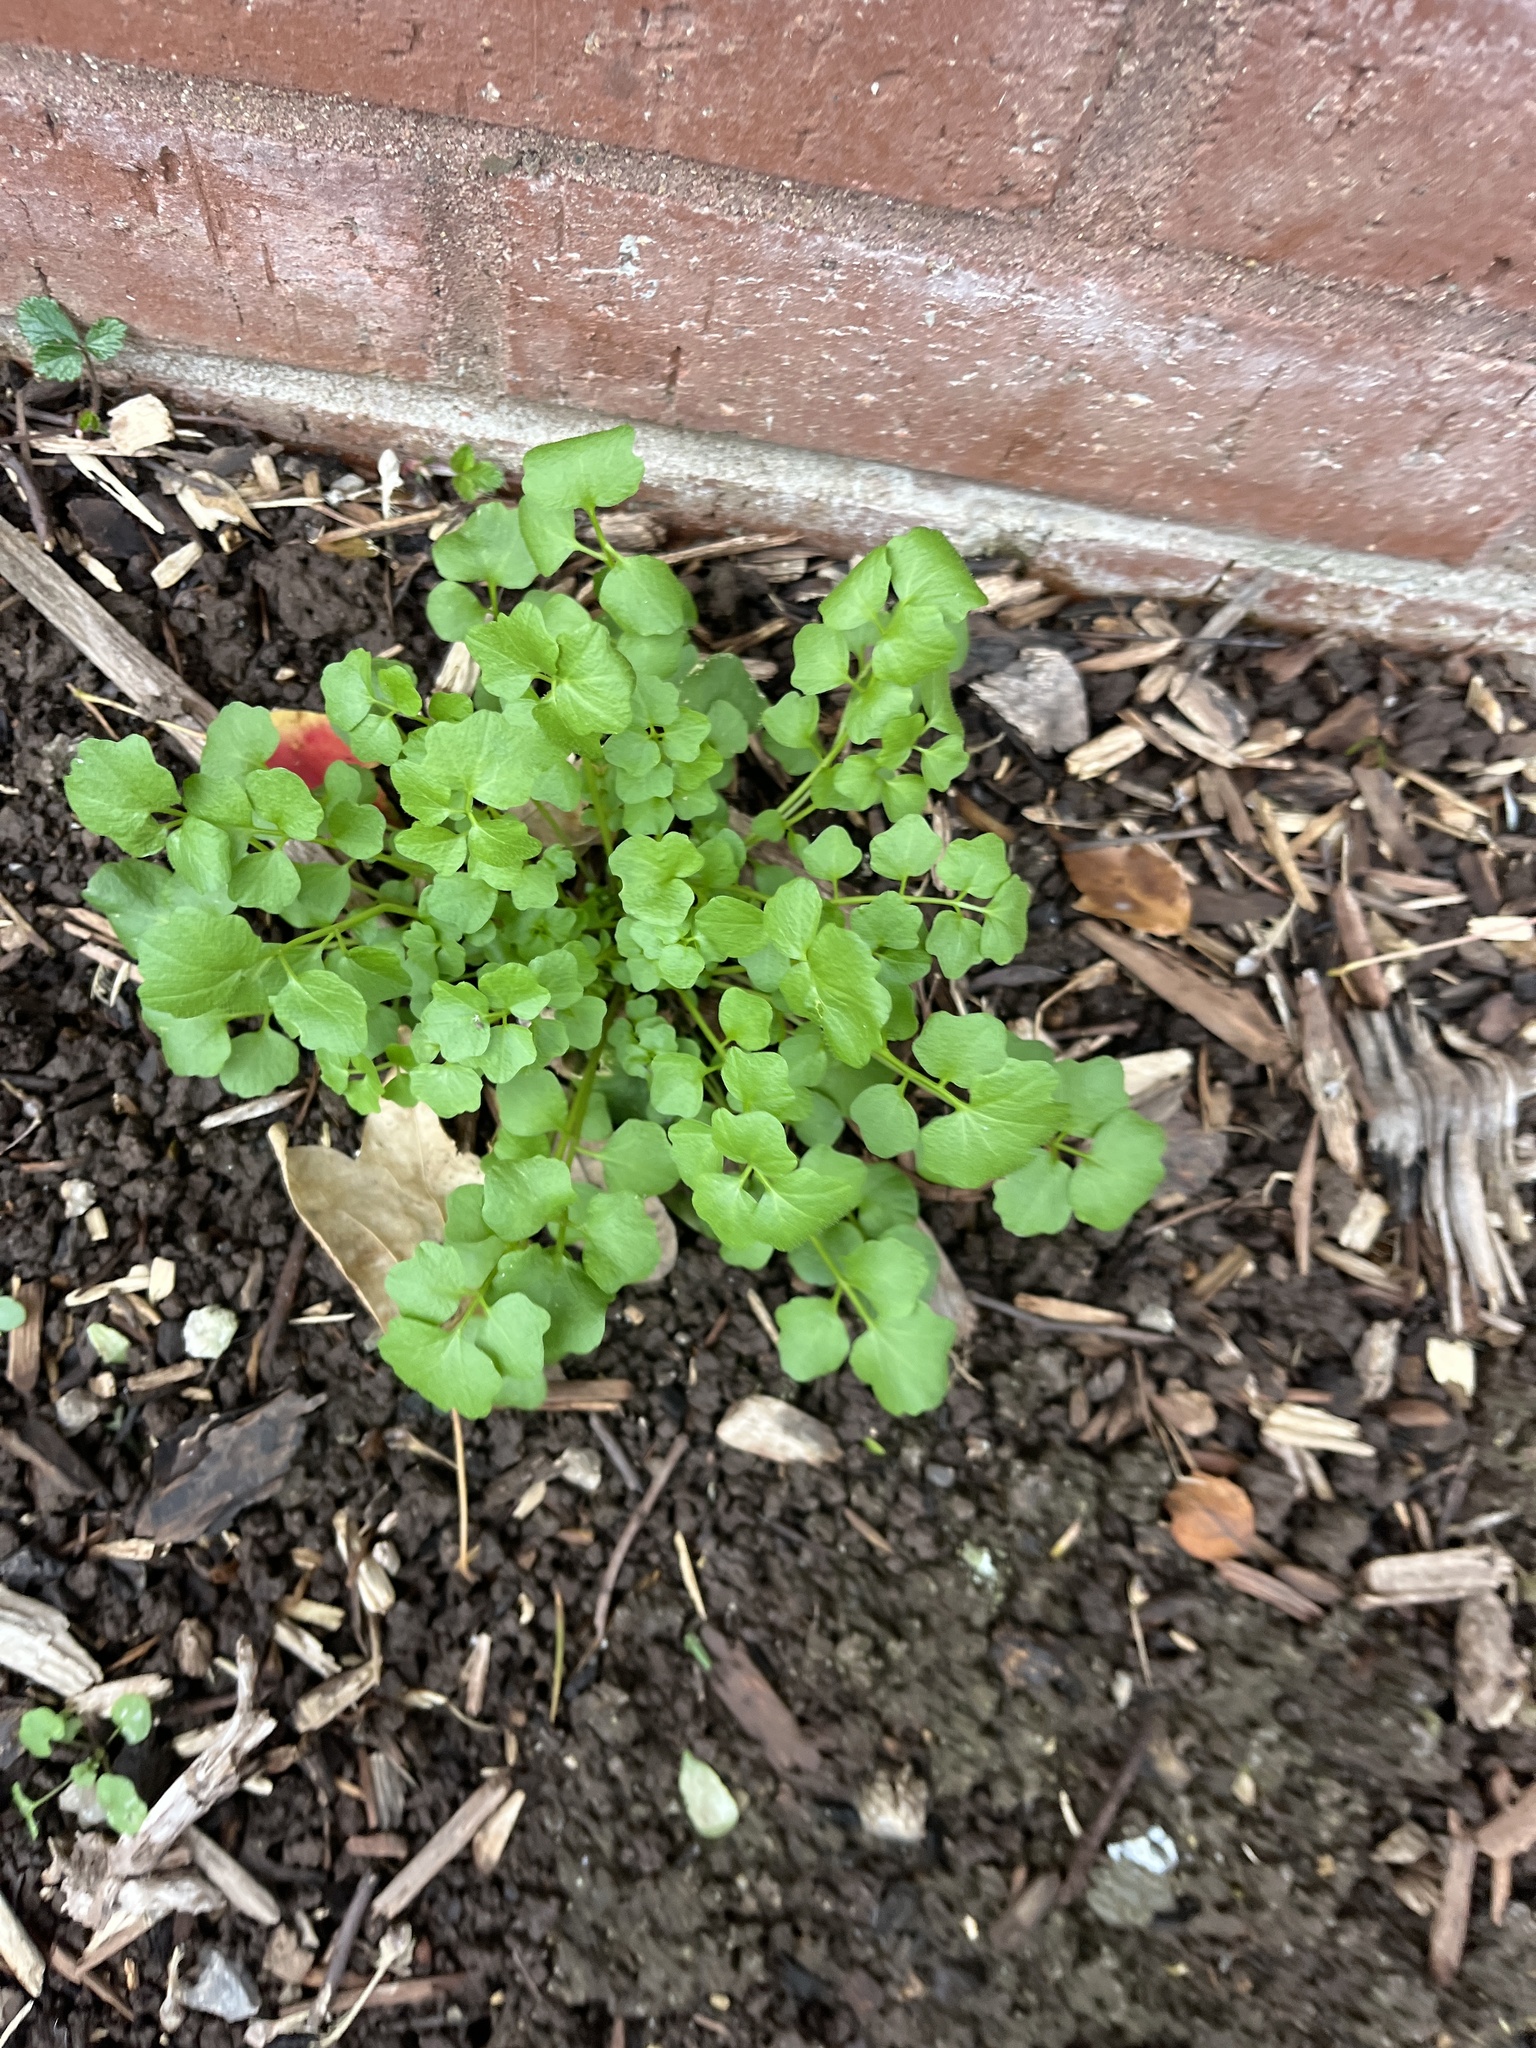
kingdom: Plantae
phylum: Tracheophyta
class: Magnoliopsida
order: Brassicales
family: Brassicaceae
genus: Cardamine
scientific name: Cardamine hirsuta
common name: Hairy bittercress
